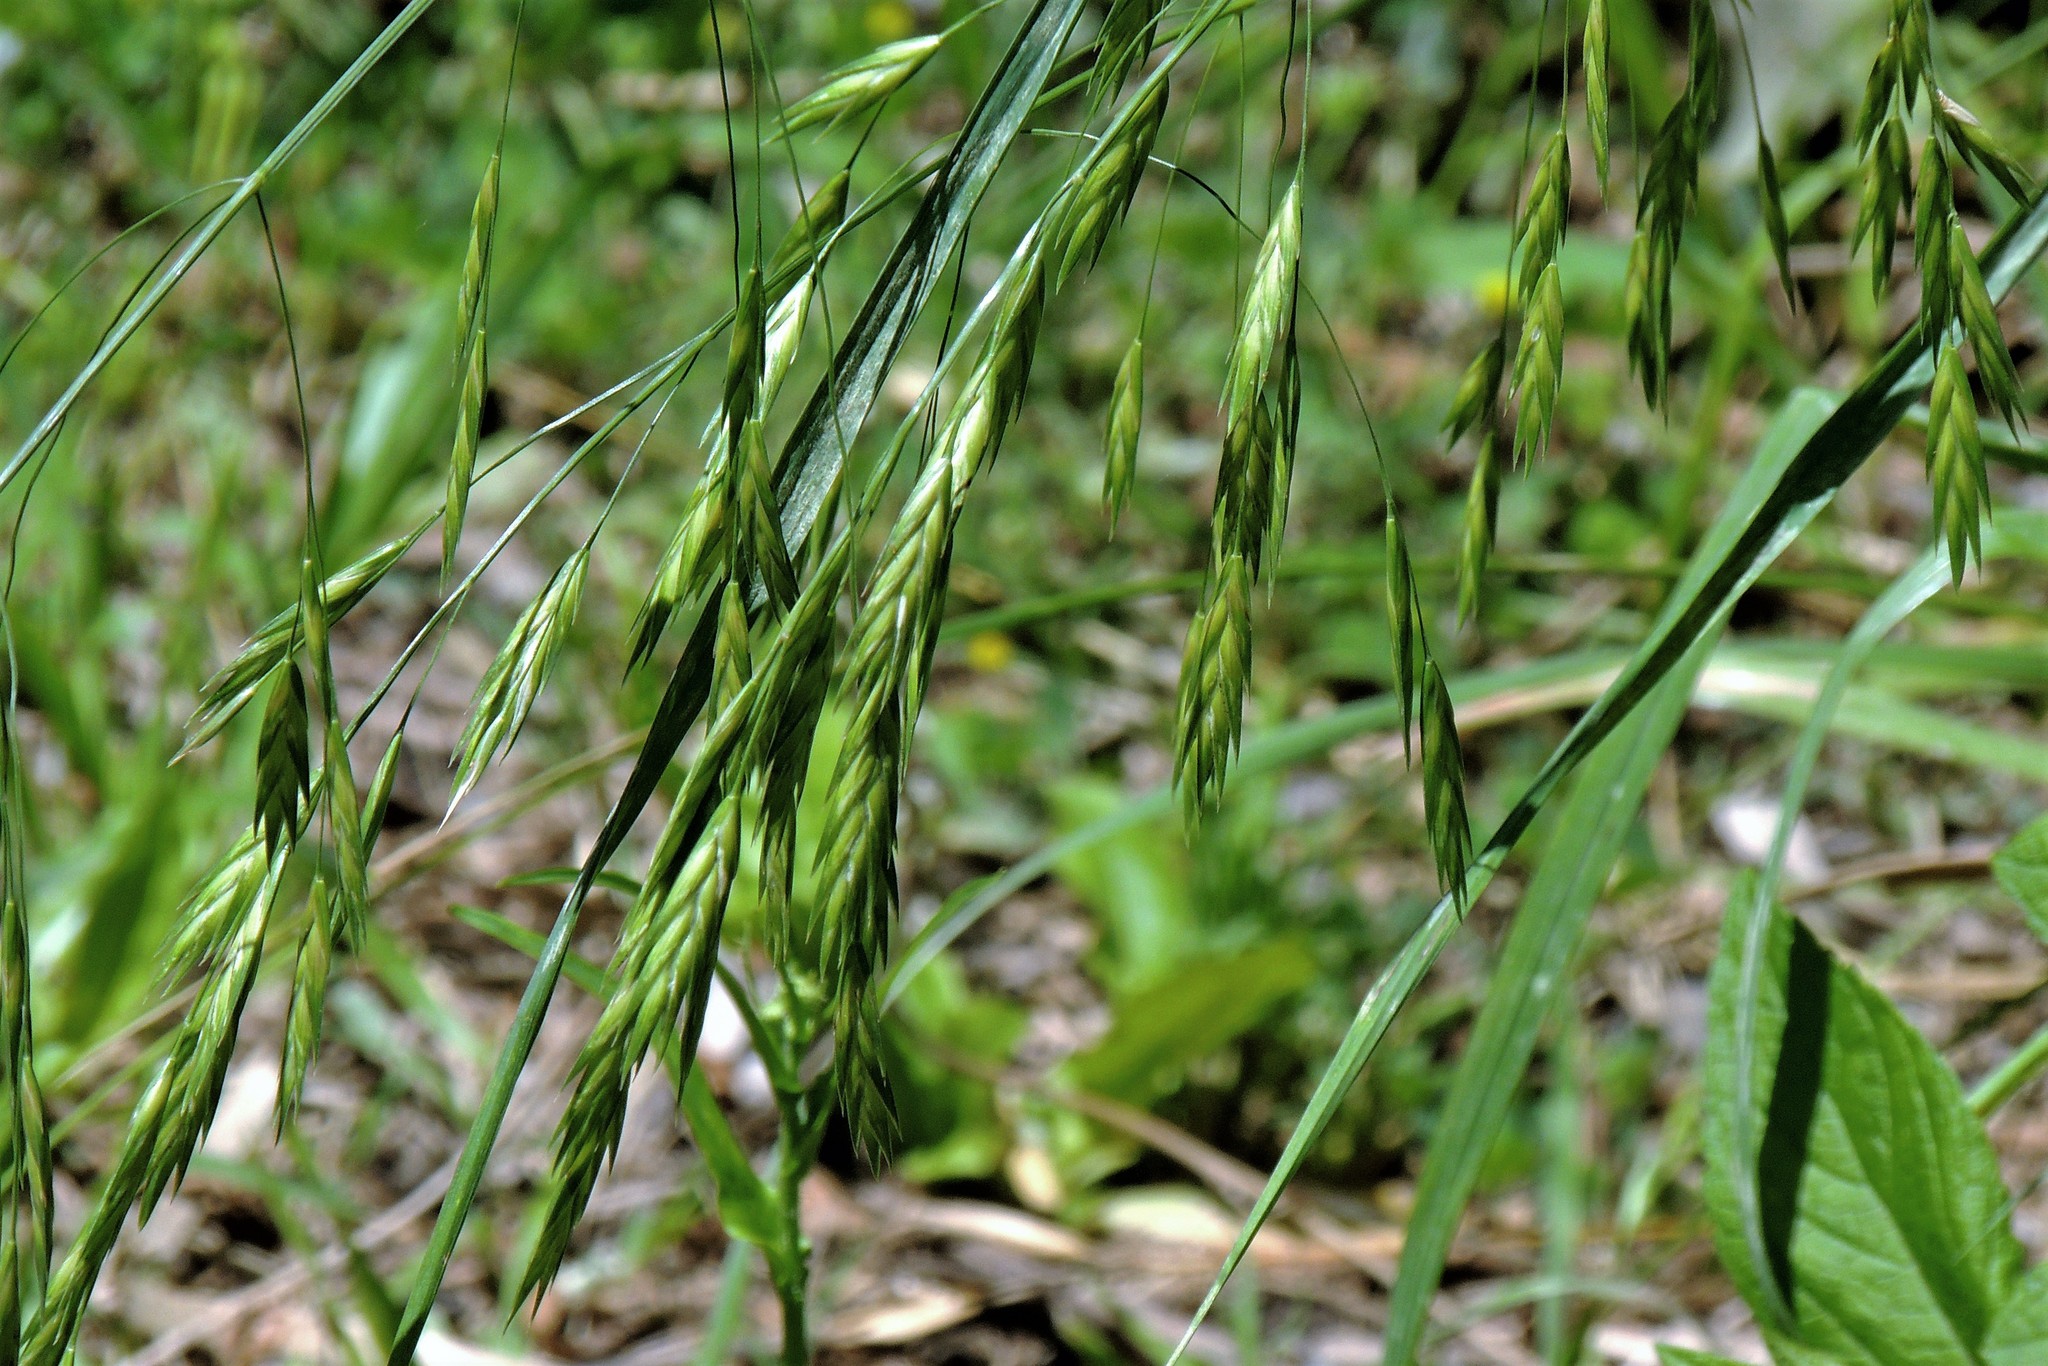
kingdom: Plantae
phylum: Tracheophyta
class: Liliopsida
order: Poales
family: Poaceae
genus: Bromus
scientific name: Bromus catharticus
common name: Rescuegrass
